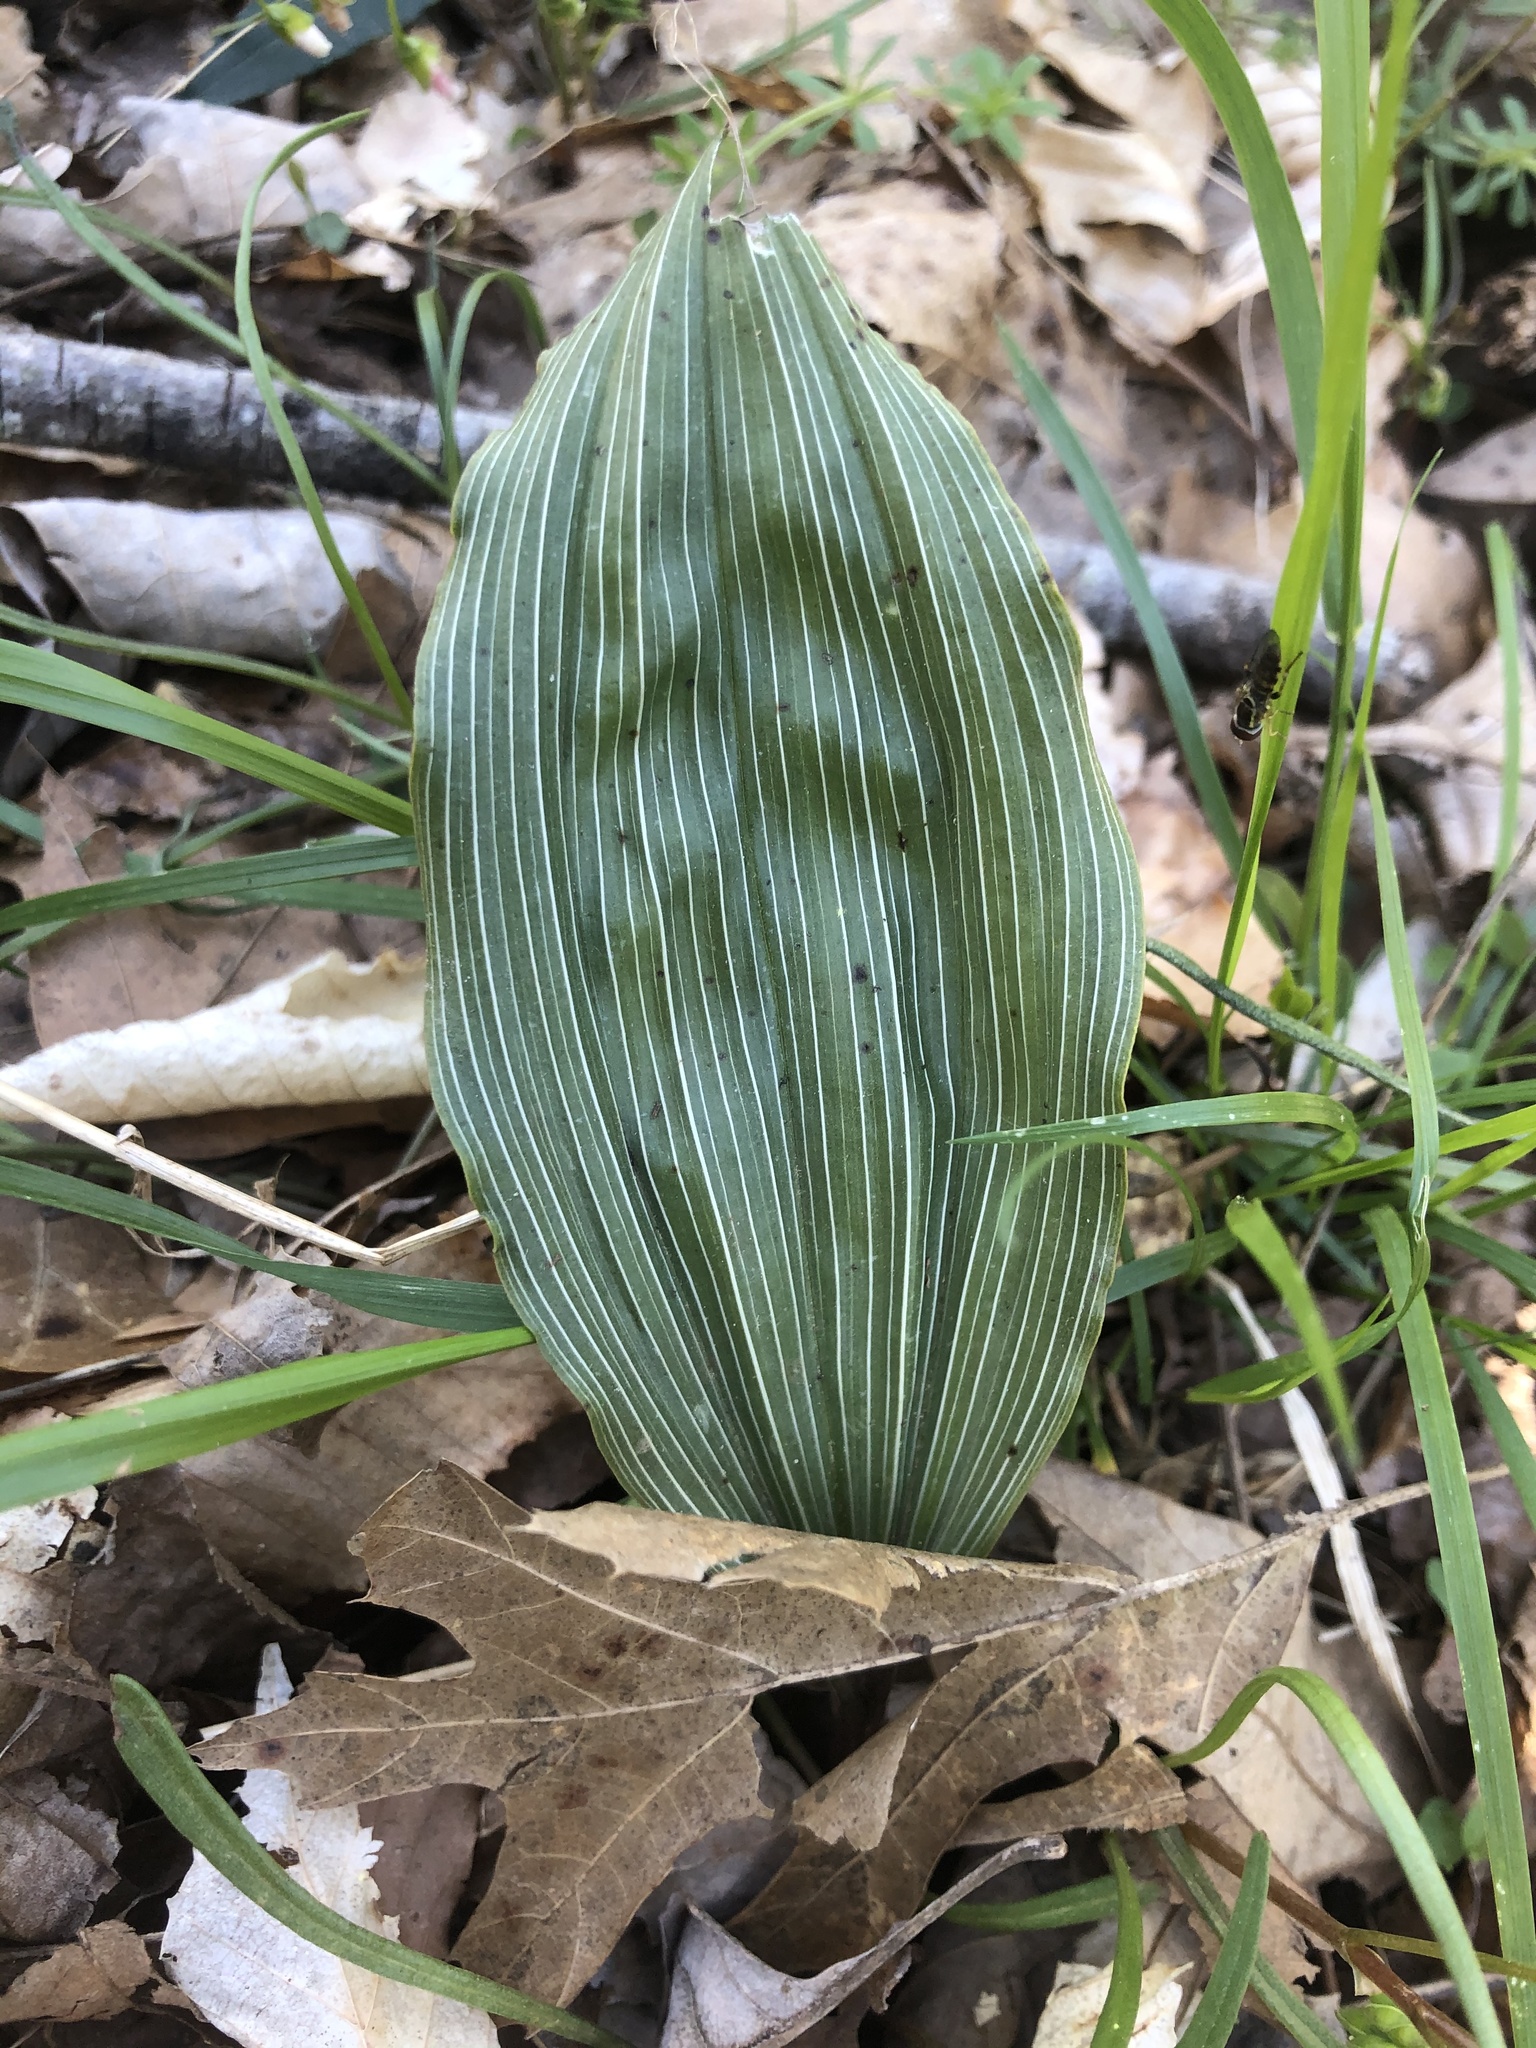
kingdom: Plantae
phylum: Tracheophyta
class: Liliopsida
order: Asparagales
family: Orchidaceae
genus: Aplectrum
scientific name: Aplectrum hyemale
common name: Adam-and-eve
